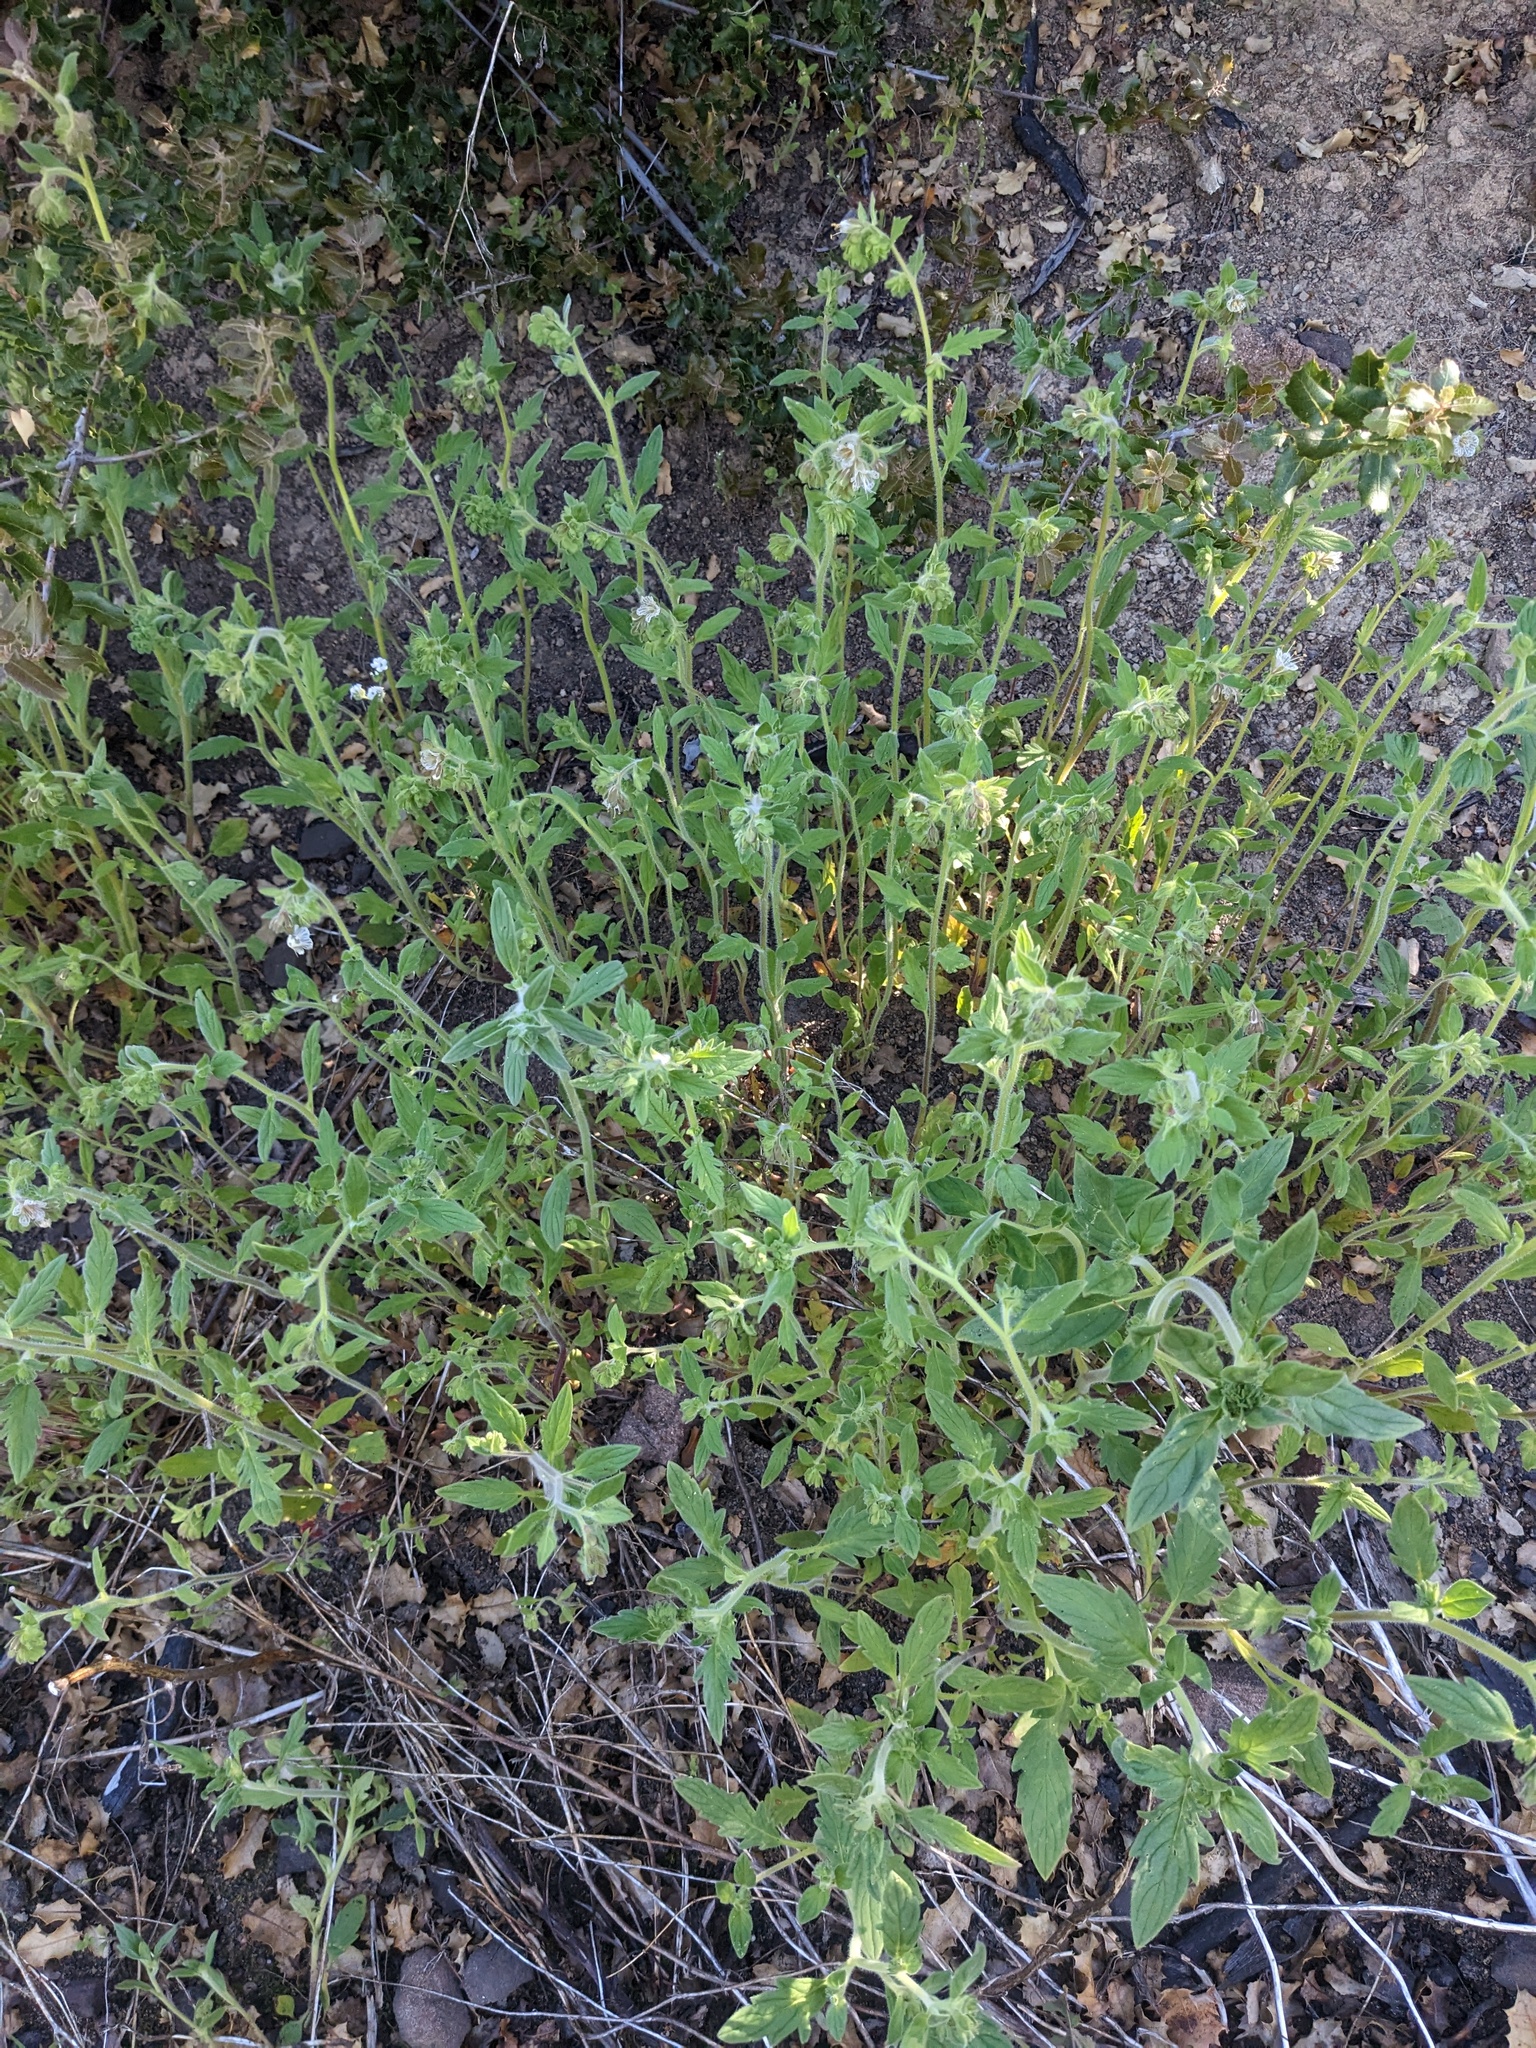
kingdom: Plantae
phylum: Tracheophyta
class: Magnoliopsida
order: Boraginales
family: Hydrophyllaceae
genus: Phacelia
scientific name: Phacelia grisea
